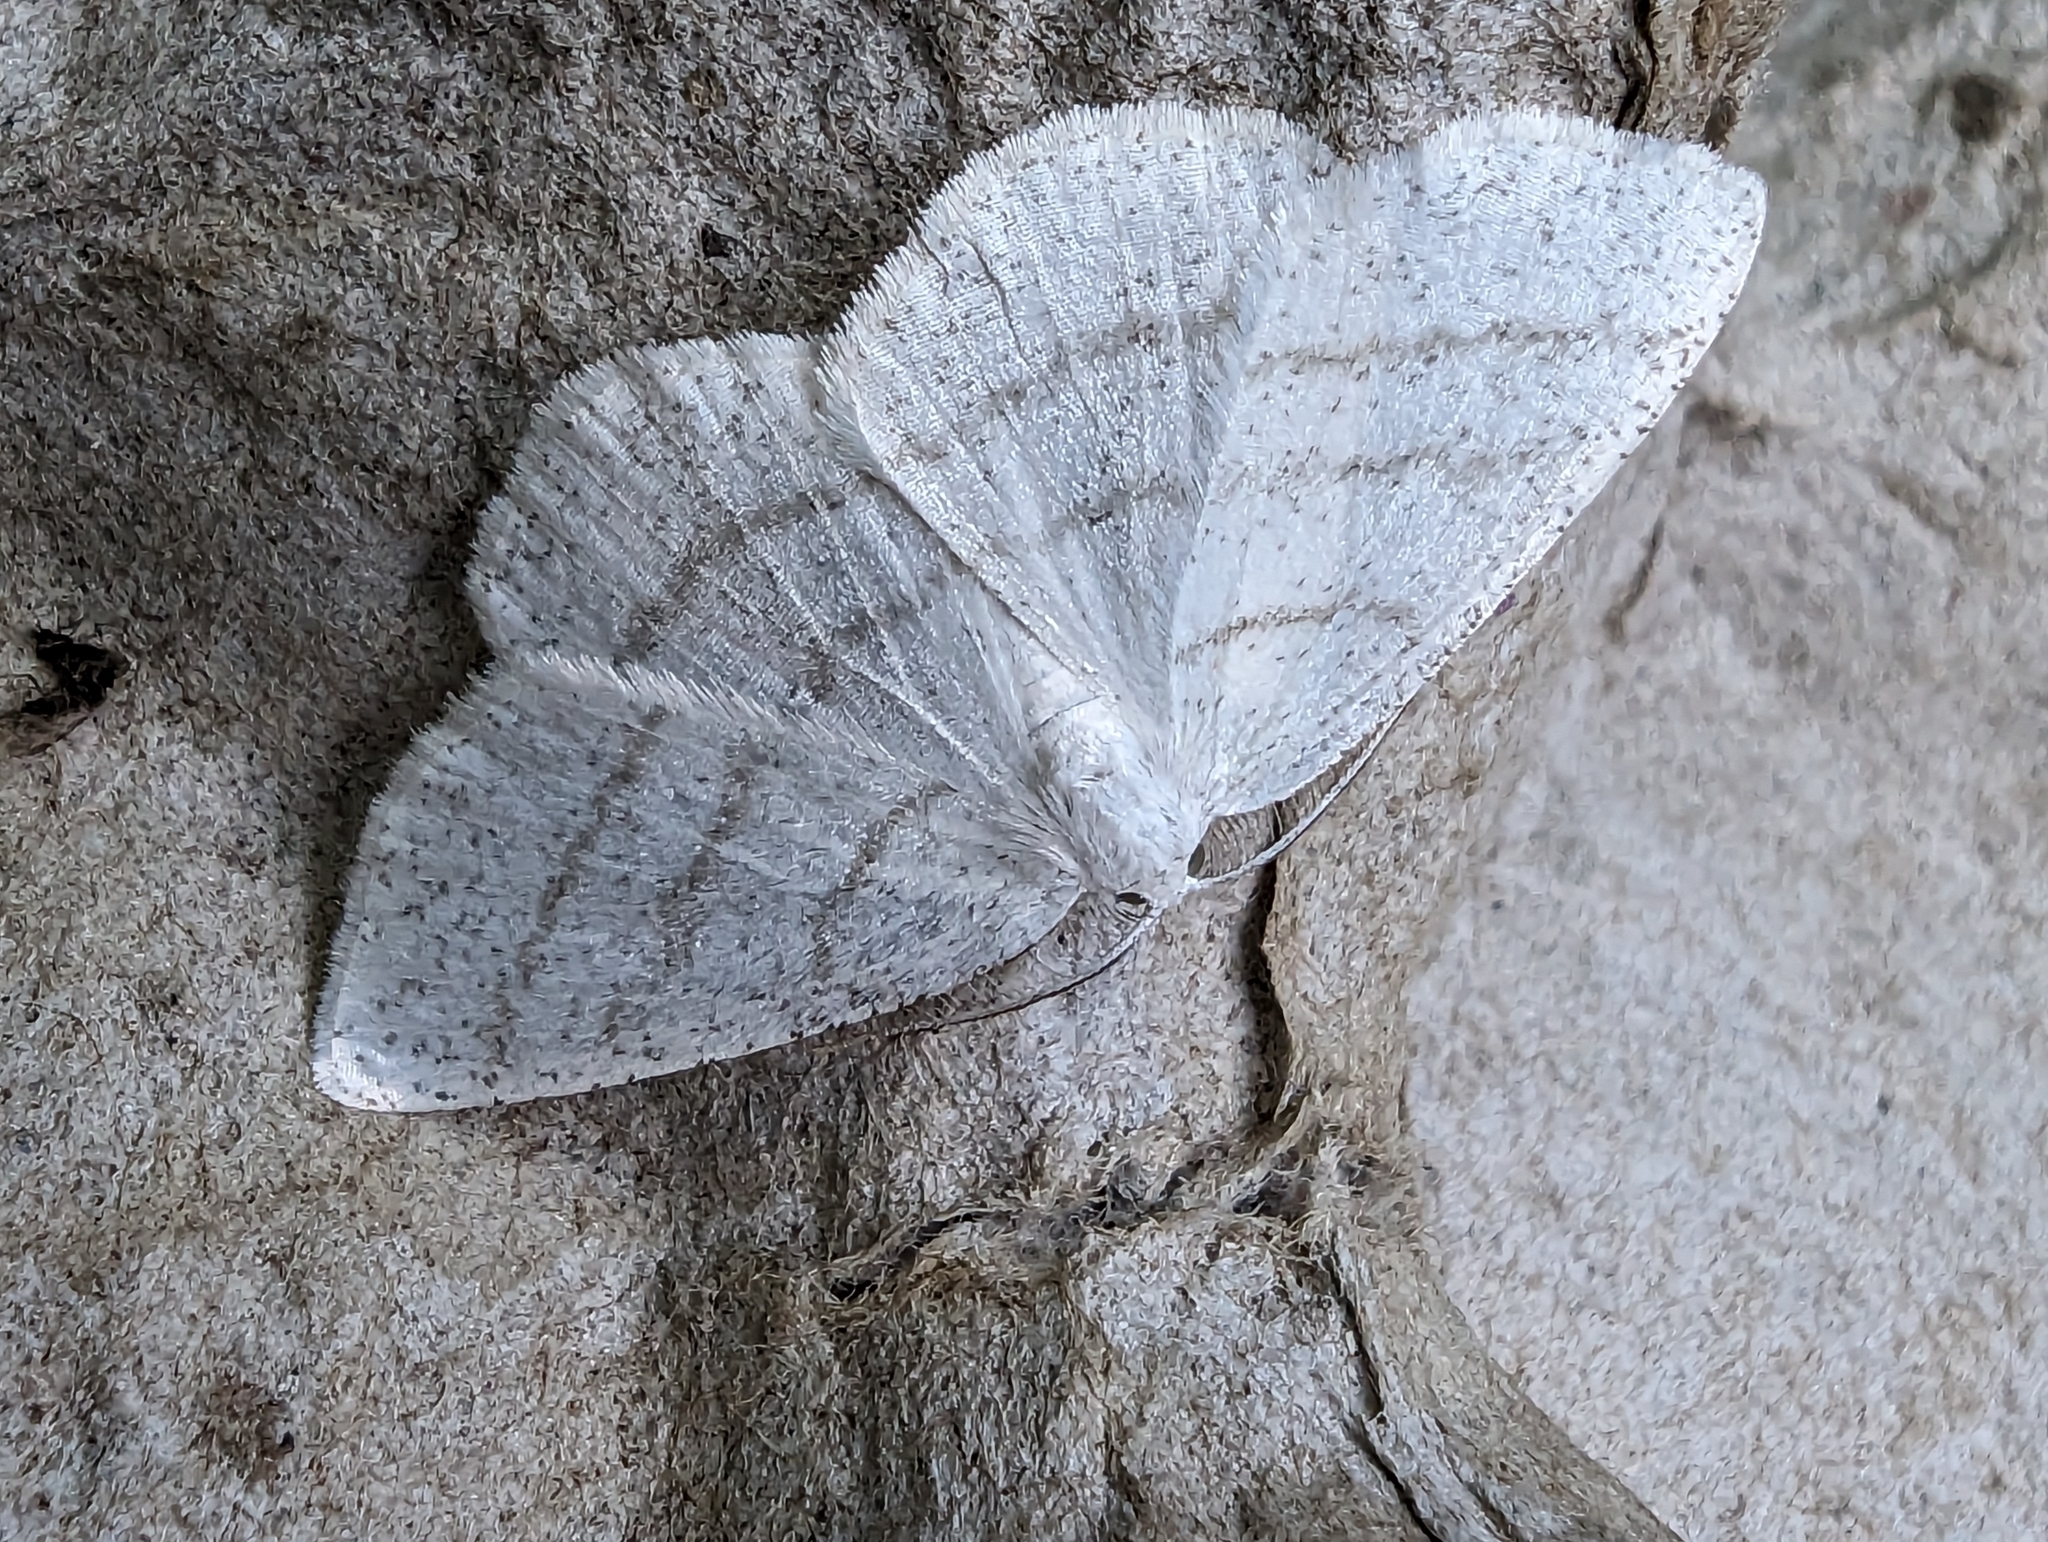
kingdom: Animalia
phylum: Arthropoda
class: Insecta
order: Lepidoptera
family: Geometridae
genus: Cabera
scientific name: Cabera pusaria
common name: Common white wave
